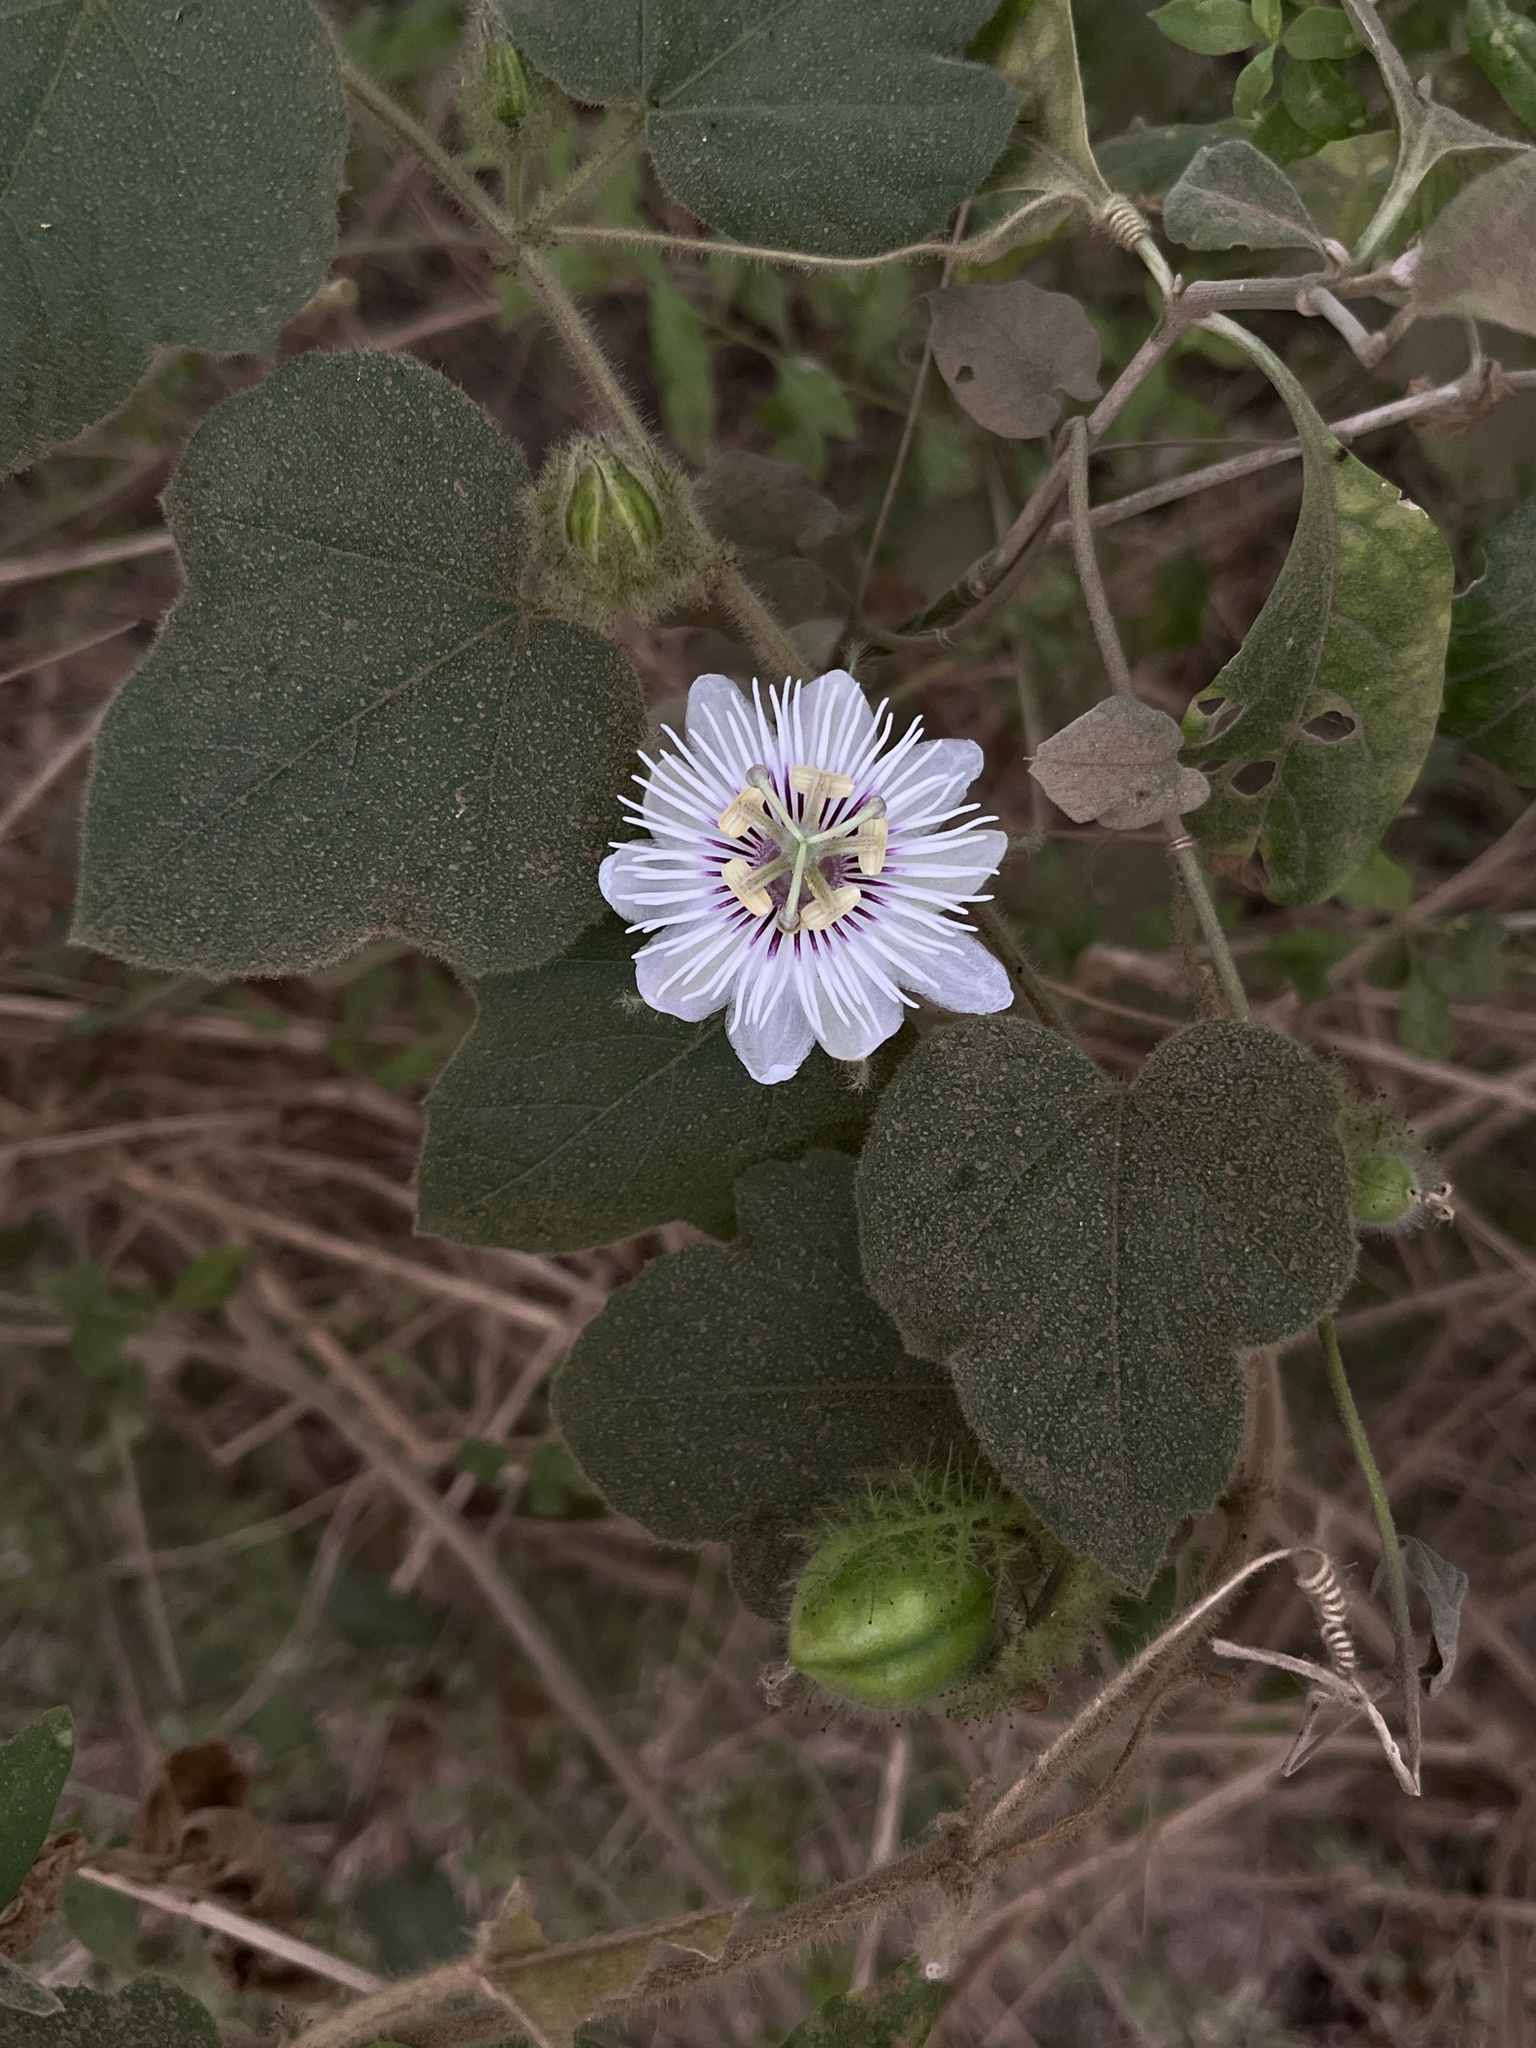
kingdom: Plantae
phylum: Tracheophyta
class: Magnoliopsida
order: Malpighiales
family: Passifloraceae
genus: Passiflora
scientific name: Passiflora vesicaria
